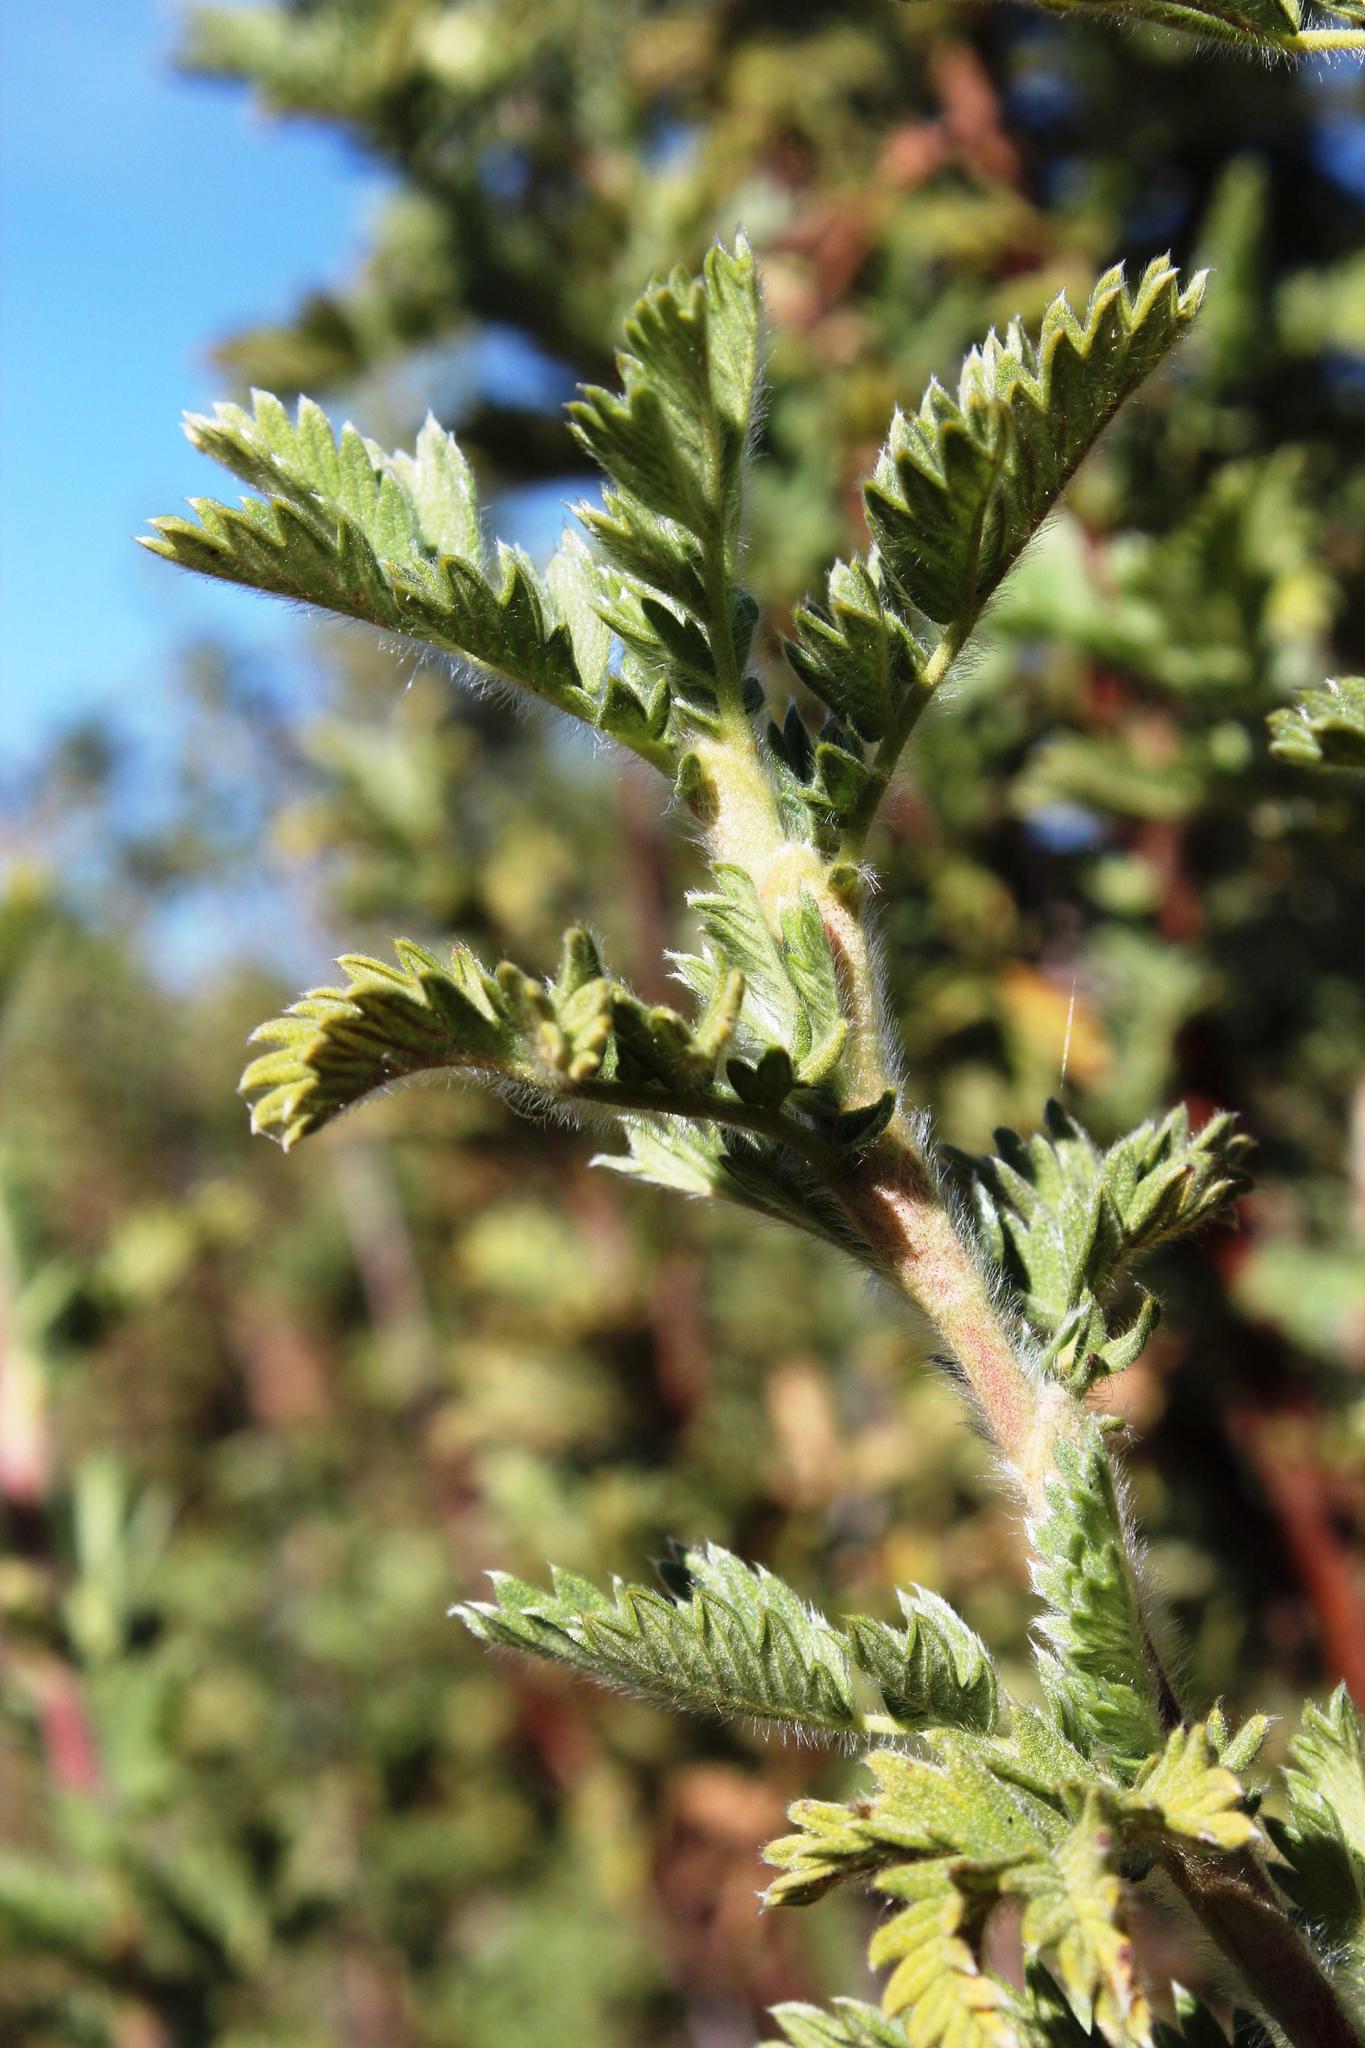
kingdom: Plantae
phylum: Tracheophyta
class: Magnoliopsida
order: Rosales
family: Rosaceae
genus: Leucosidea
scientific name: Leucosidea sericea
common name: Oldwood
